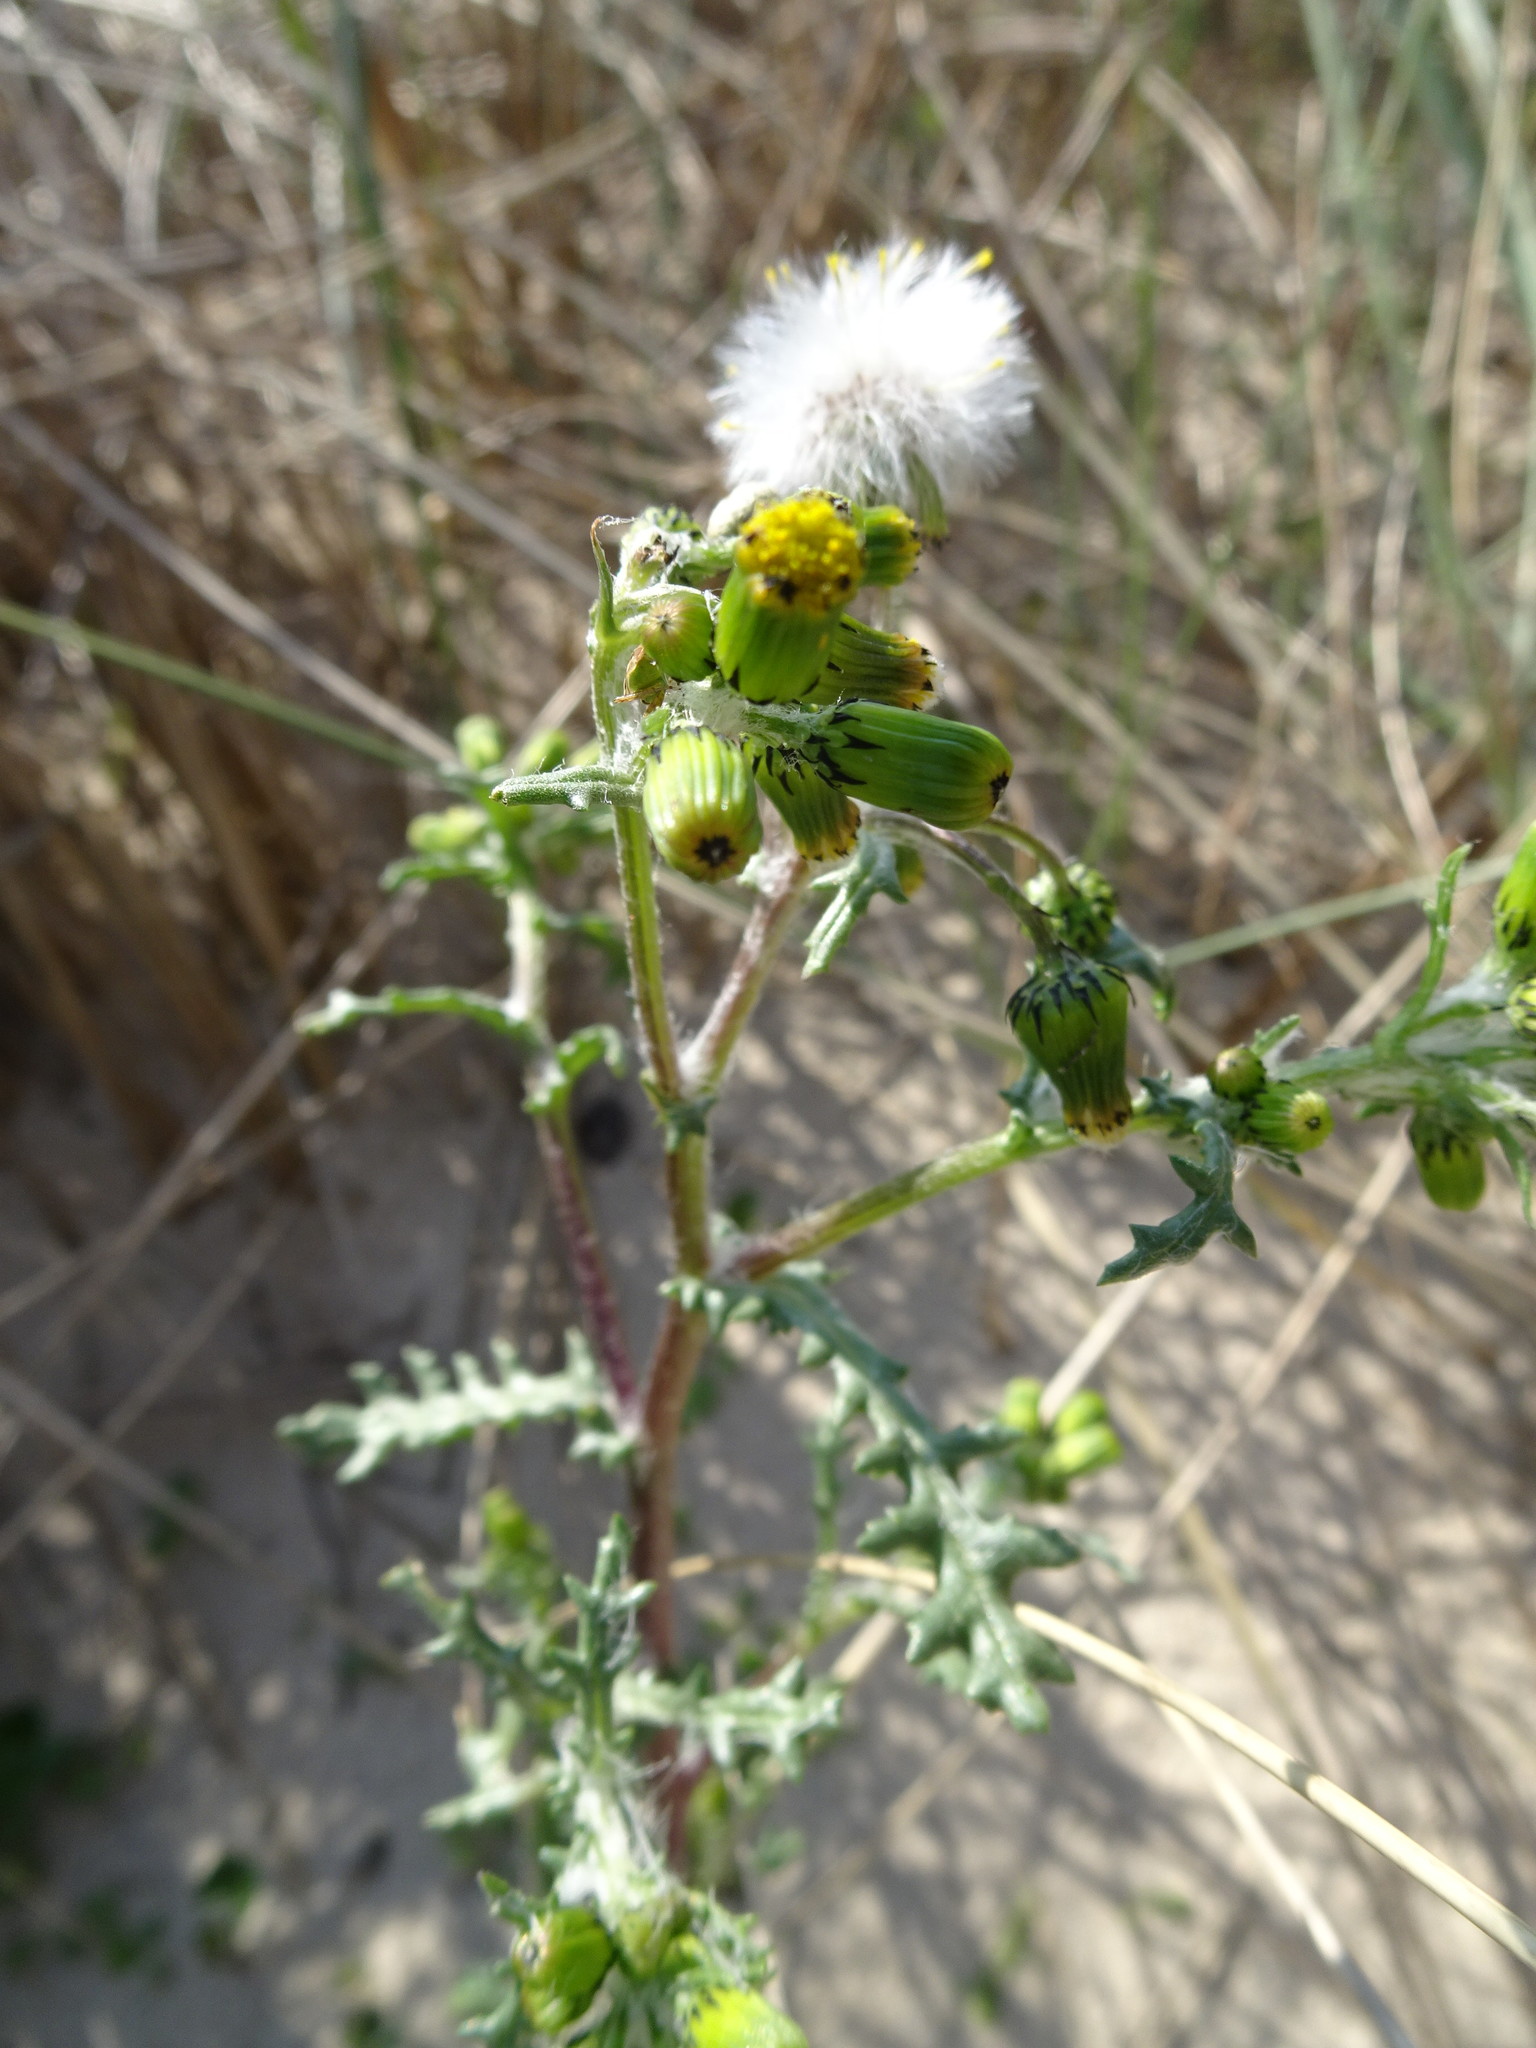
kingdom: Plantae
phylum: Tracheophyta
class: Magnoliopsida
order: Asterales
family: Asteraceae
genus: Senecio
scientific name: Senecio vulgaris
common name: Old-man-in-the-spring
